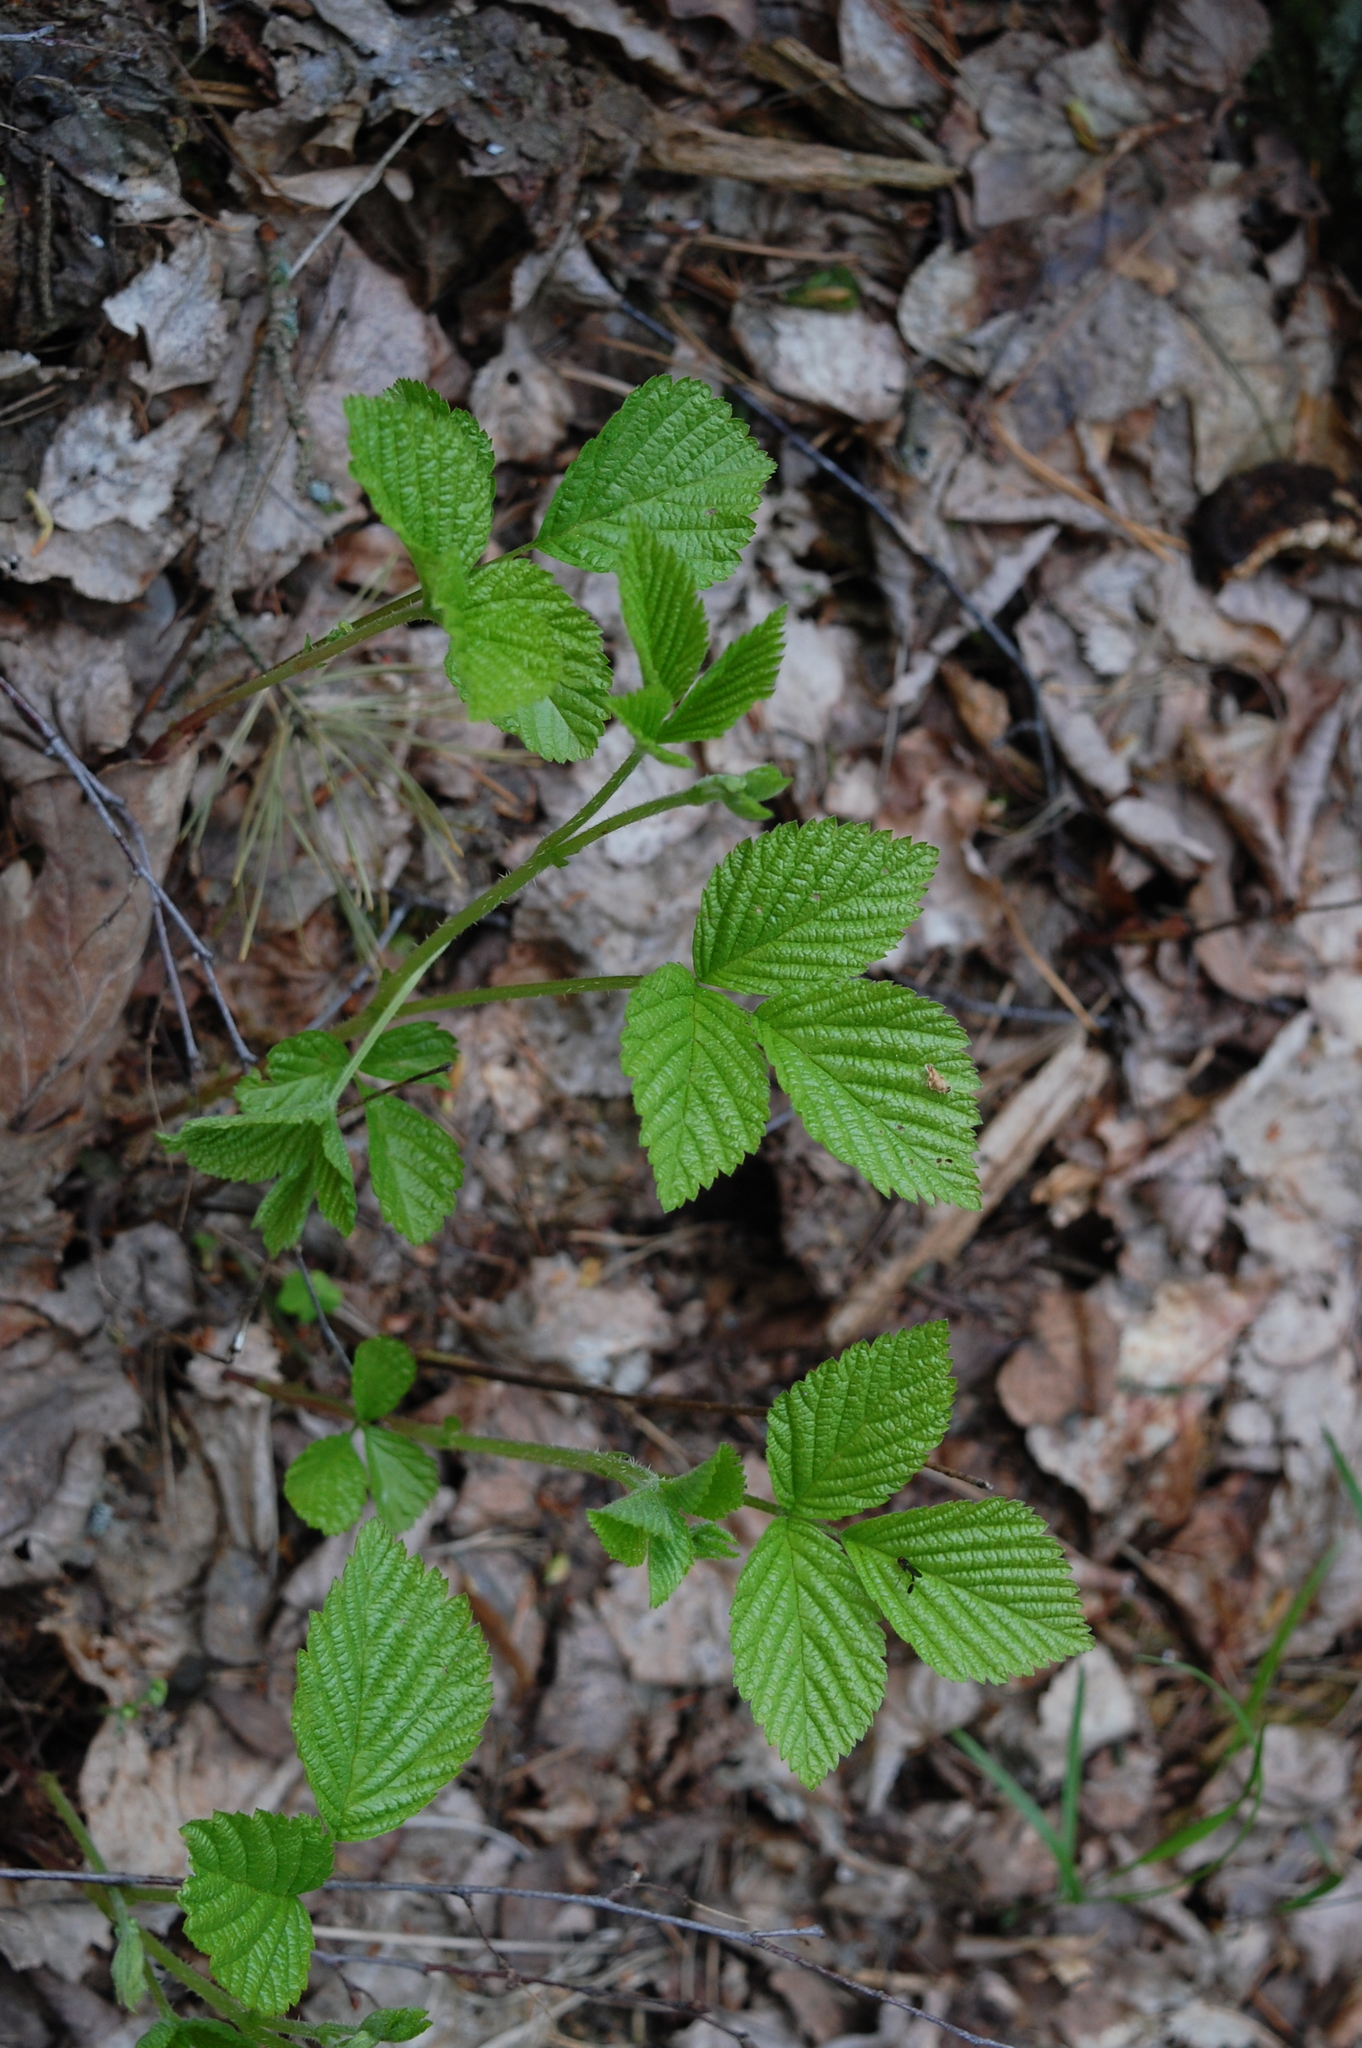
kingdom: Plantae
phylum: Tracheophyta
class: Magnoliopsida
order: Rosales
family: Rosaceae
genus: Rubus
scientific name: Rubus saxatilis
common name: Stone bramble
